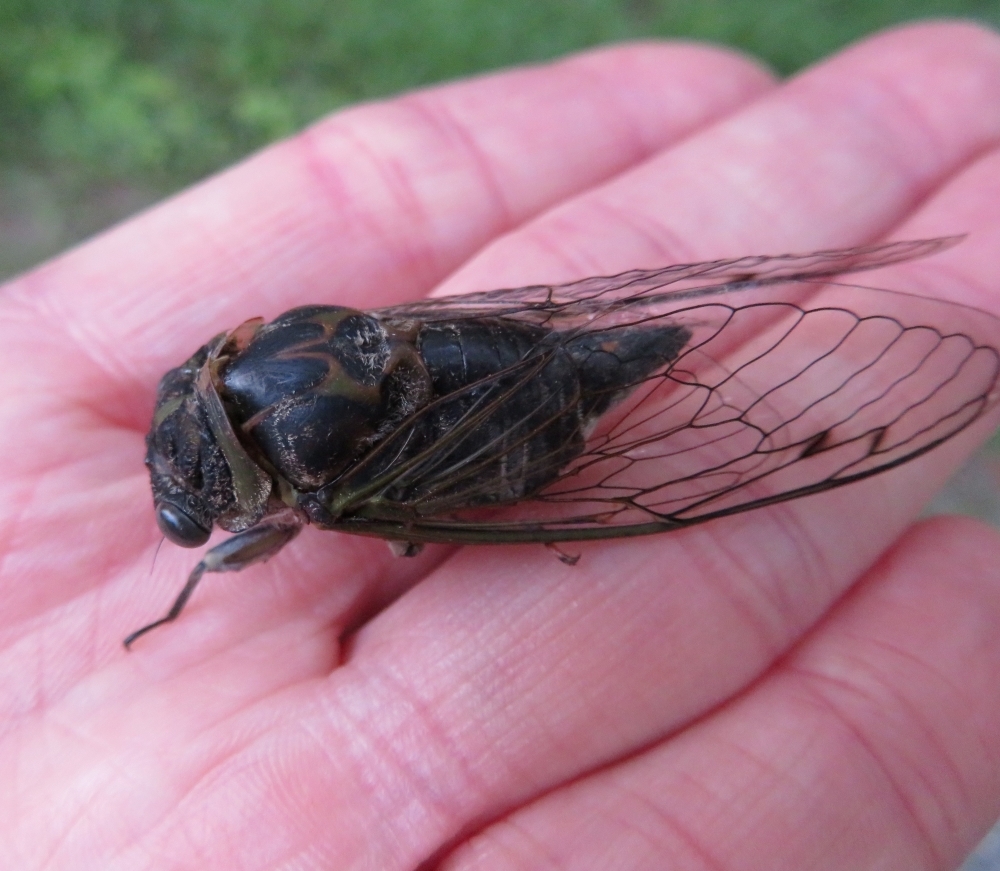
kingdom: Animalia
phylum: Arthropoda
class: Insecta
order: Hemiptera
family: Cicadidae
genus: Neotibicen
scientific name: Neotibicen canicularis
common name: God-day cicada
